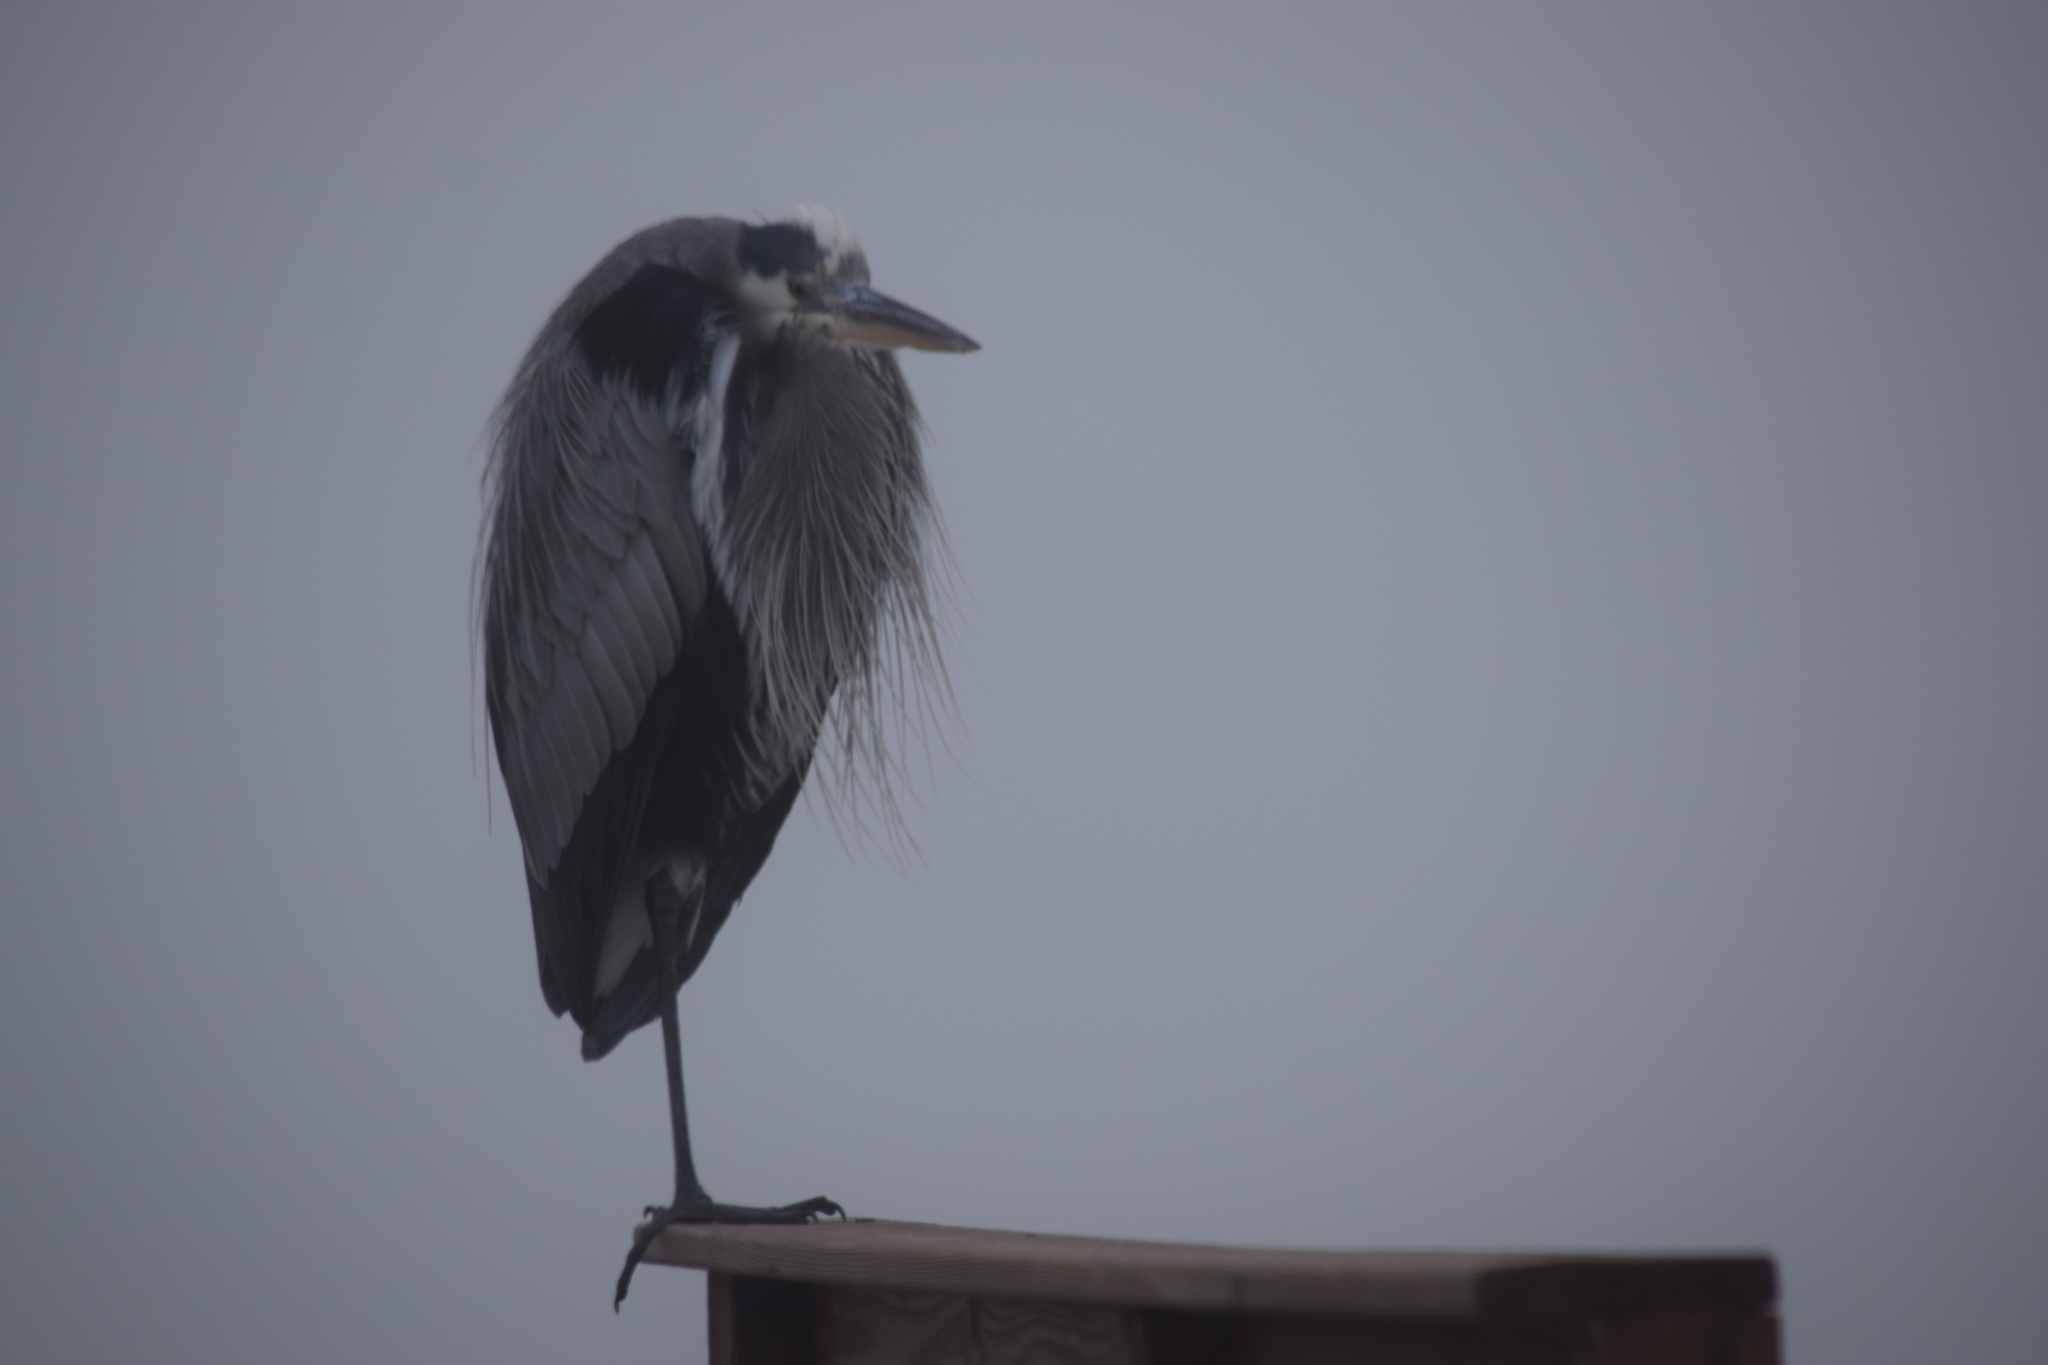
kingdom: Animalia
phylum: Chordata
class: Aves
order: Pelecaniformes
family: Ardeidae
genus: Ardea
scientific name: Ardea herodias
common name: Great blue heron
